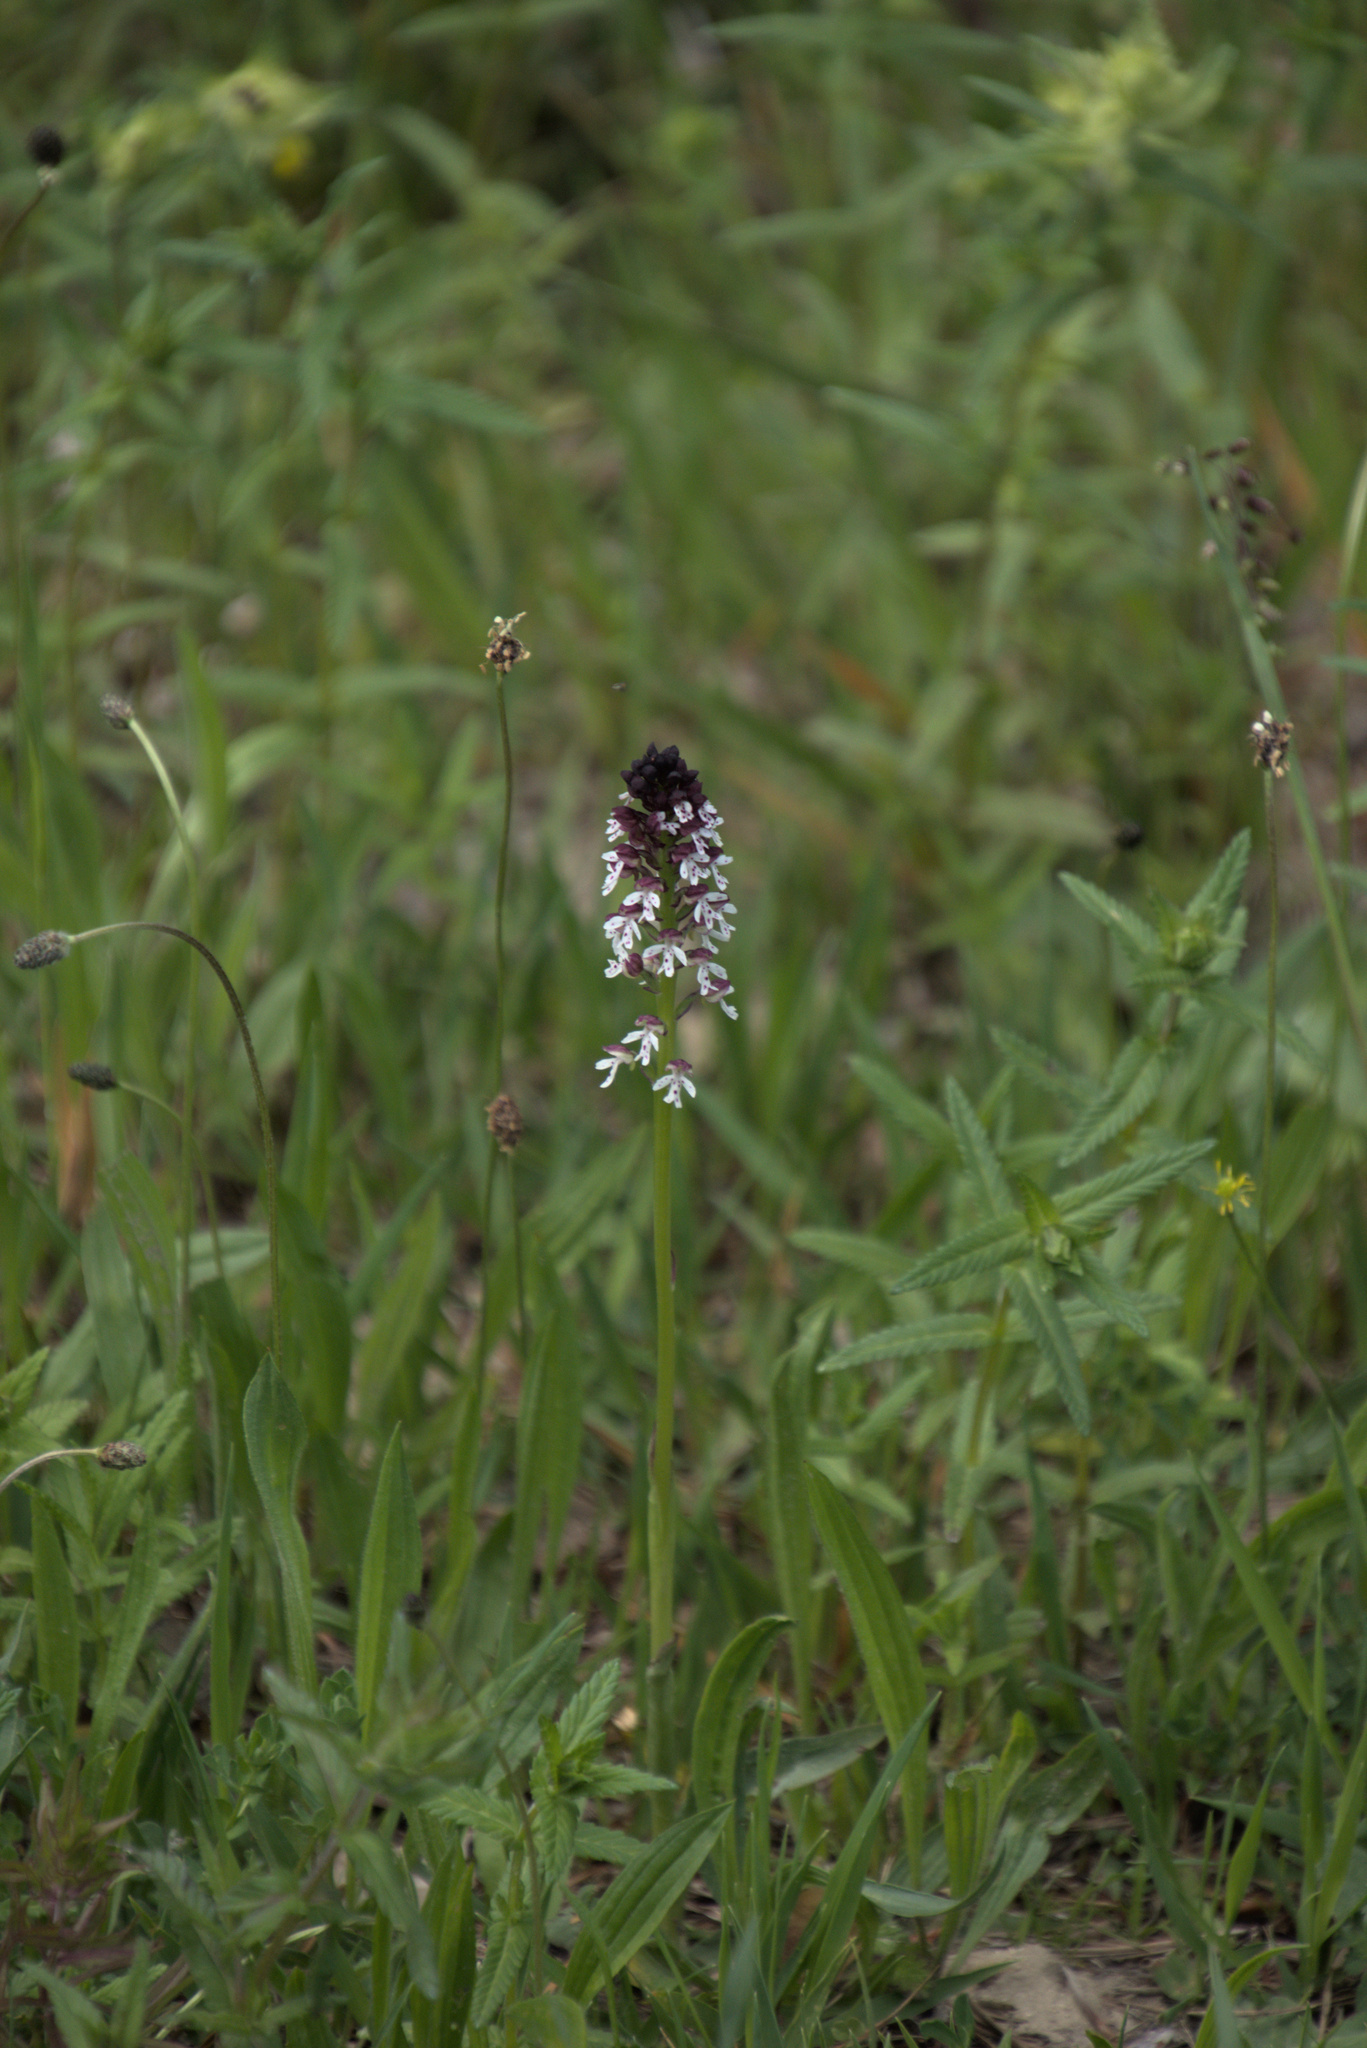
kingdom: Plantae
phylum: Tracheophyta
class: Liliopsida
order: Asparagales
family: Orchidaceae
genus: Neotinea
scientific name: Neotinea ustulata
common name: Burnt orchid
